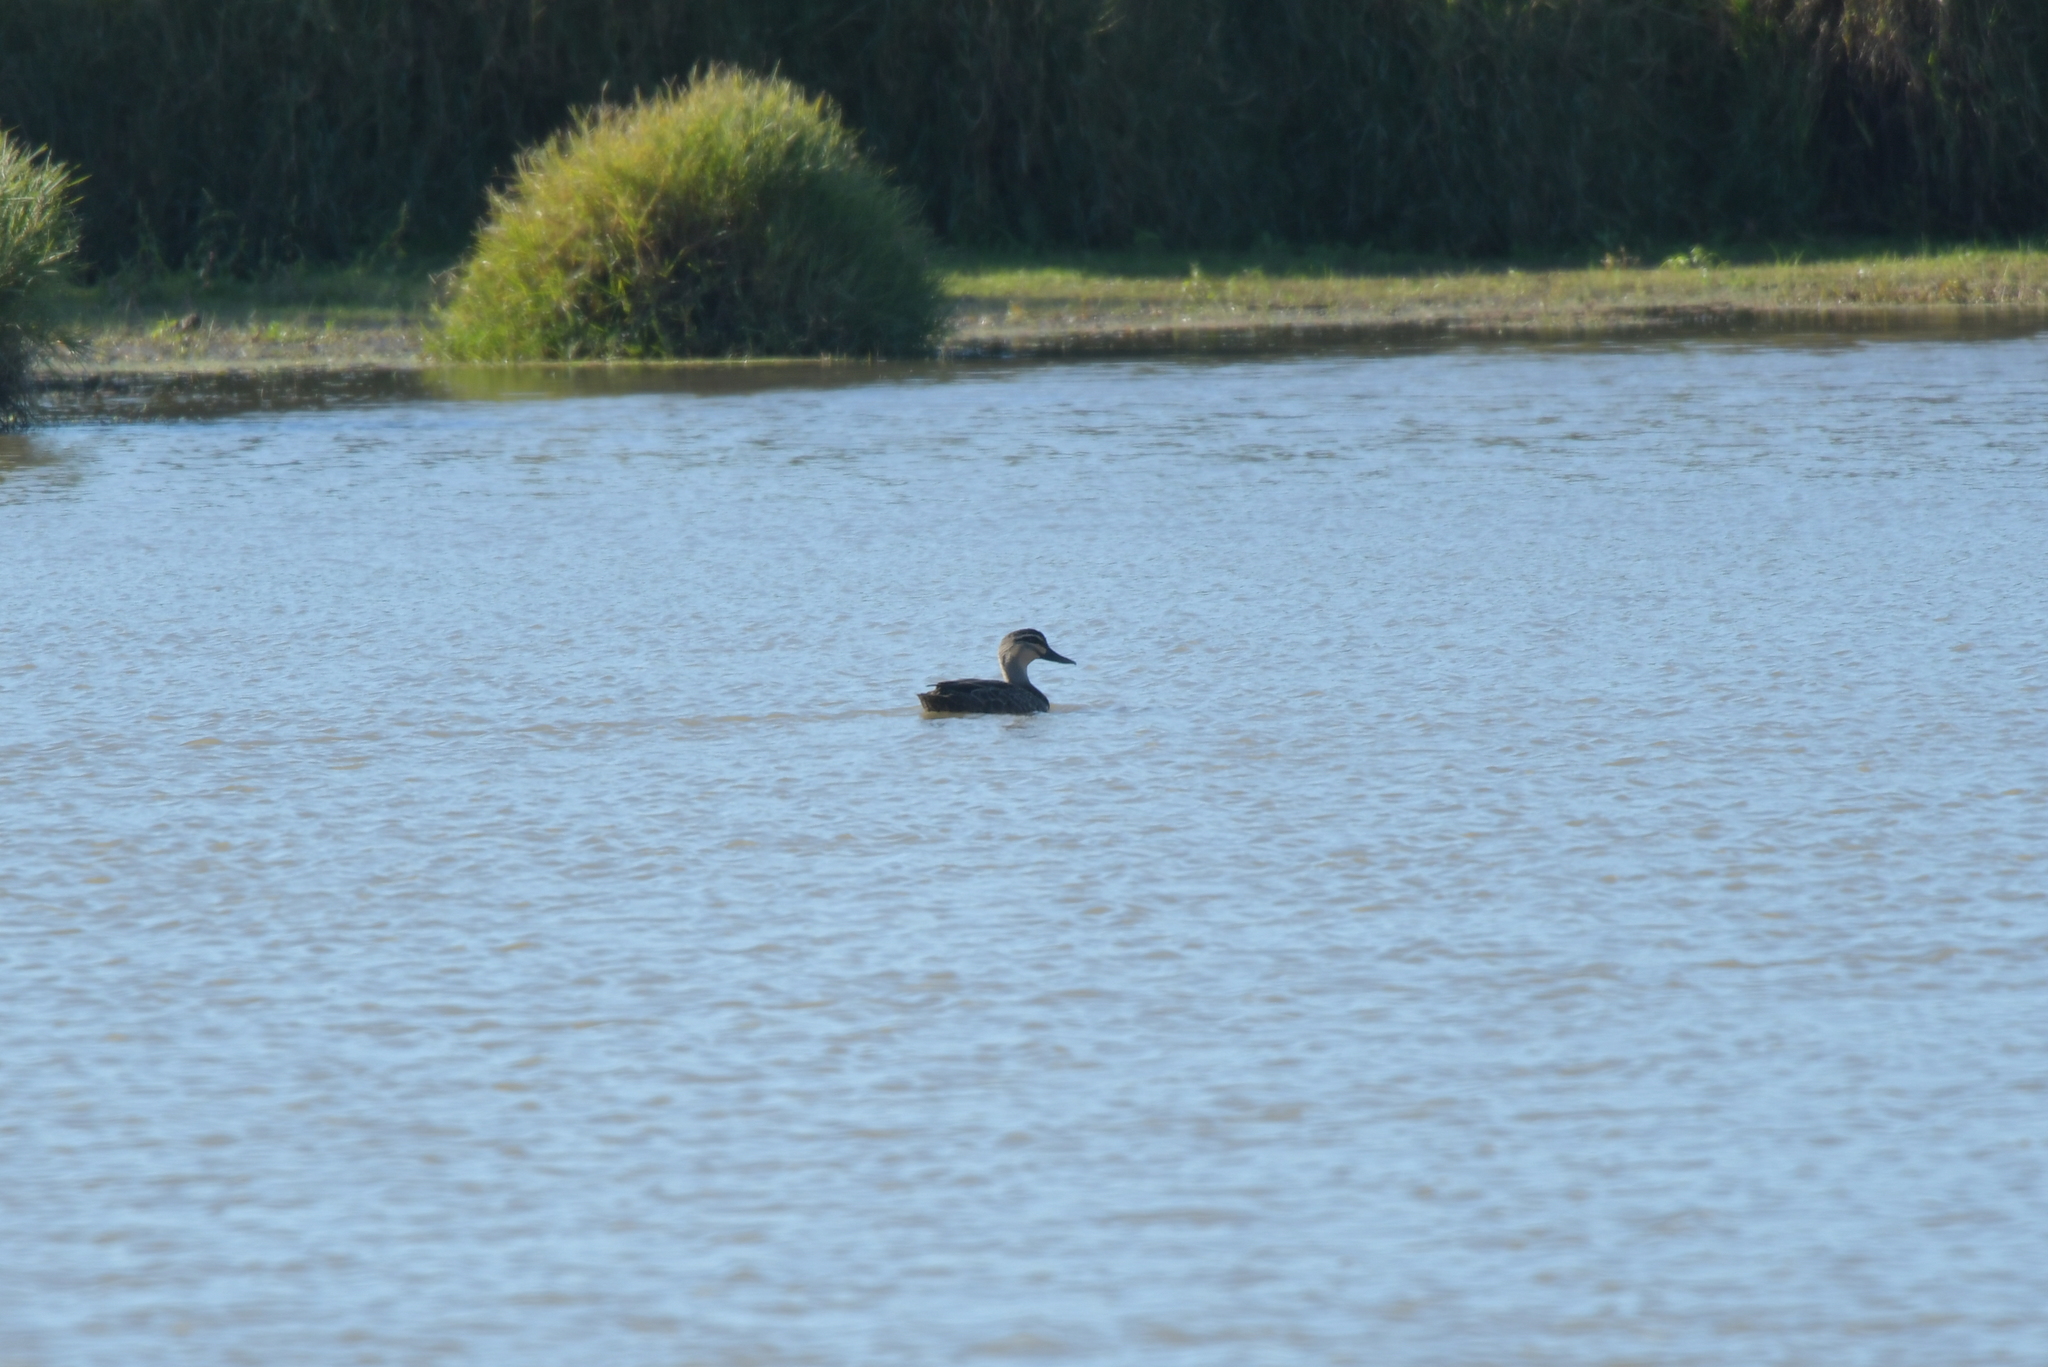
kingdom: Animalia
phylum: Chordata
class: Aves
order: Anseriformes
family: Anatidae
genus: Anas
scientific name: Anas superciliosa
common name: Pacific black duck
